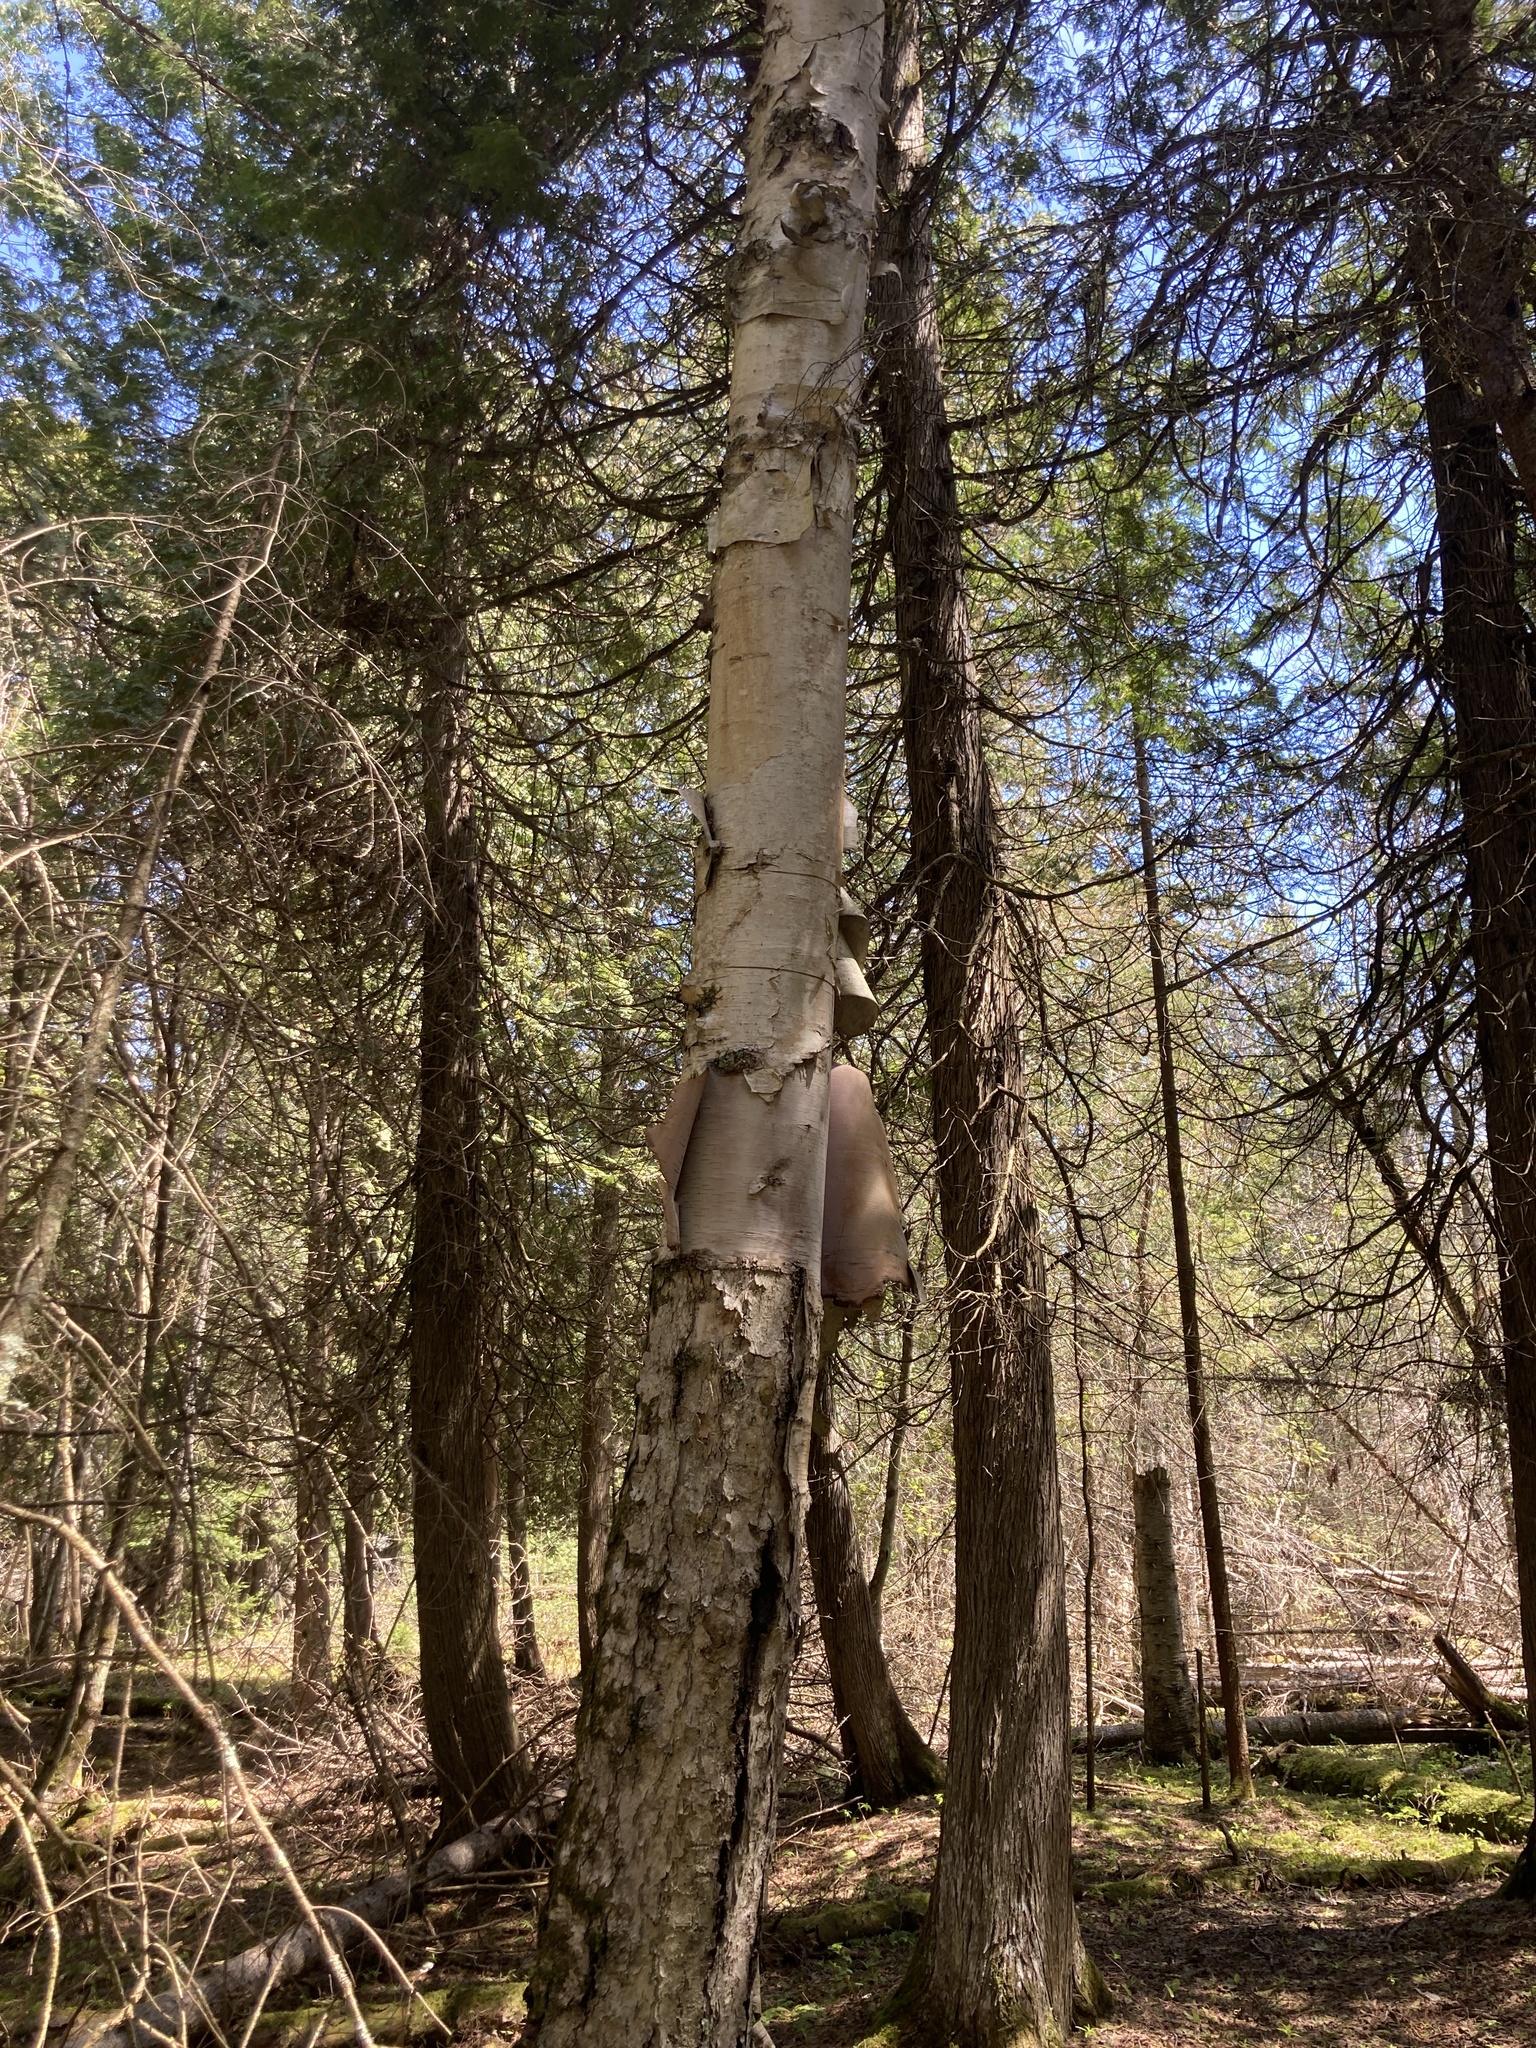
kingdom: Plantae
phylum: Tracheophyta
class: Magnoliopsida
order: Fagales
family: Betulaceae
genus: Betula
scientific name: Betula papyrifera
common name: Paper birch
